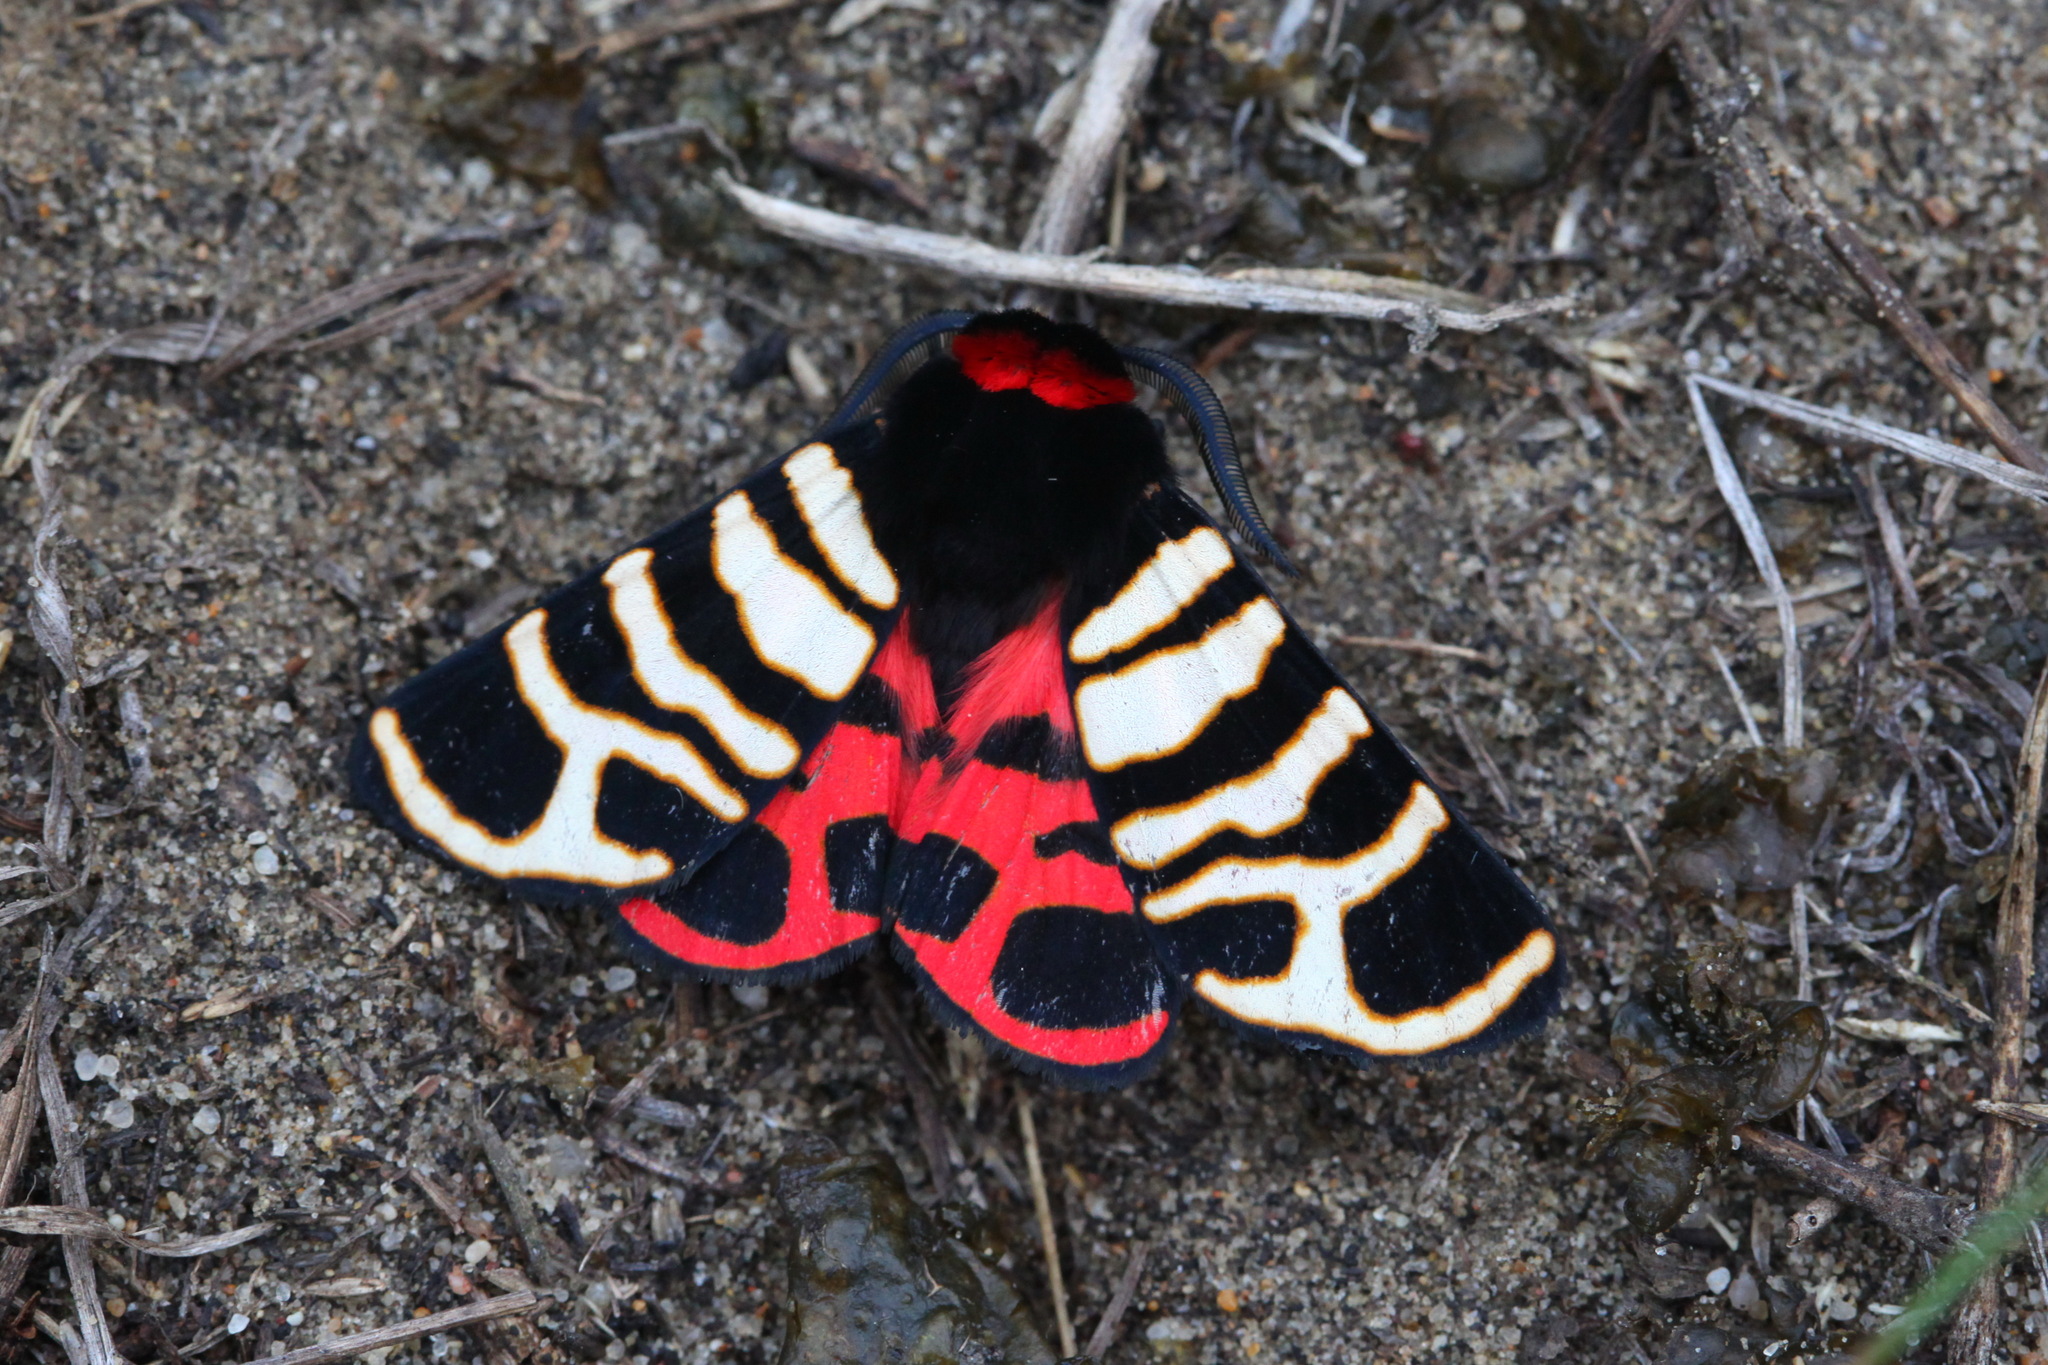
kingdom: Animalia
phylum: Arthropoda
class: Insecta
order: Lepidoptera
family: Erebidae
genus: Eucharia
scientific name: Eucharia festiva
